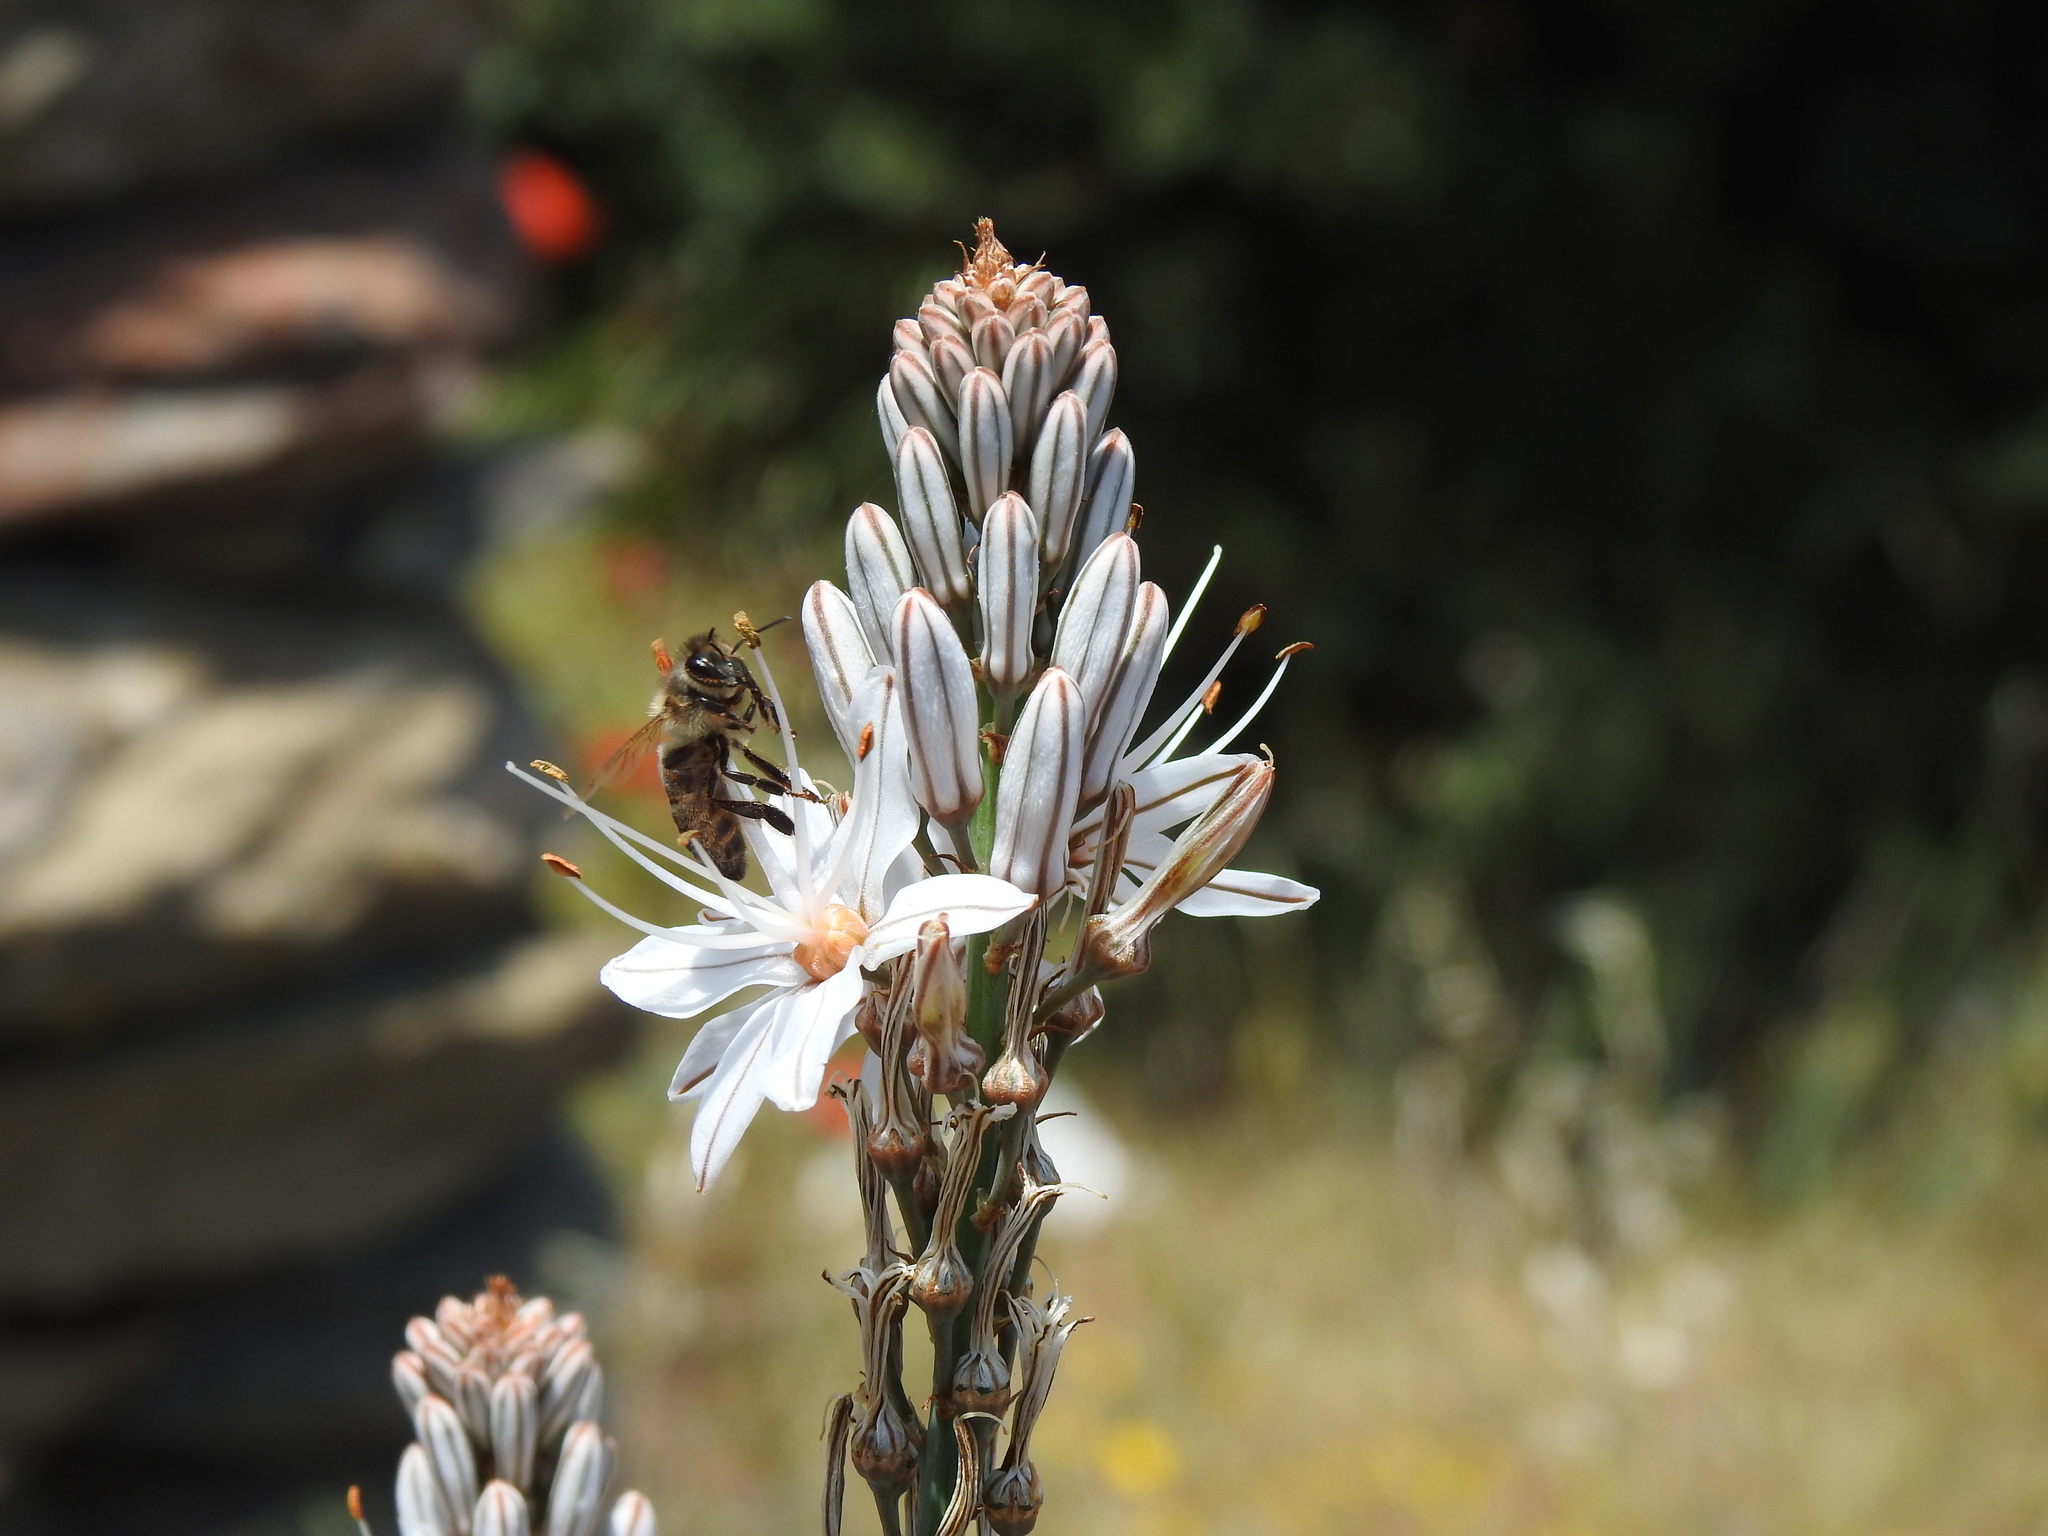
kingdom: Animalia
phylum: Arthropoda
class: Insecta
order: Hymenoptera
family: Apidae
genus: Apis
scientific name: Apis mellifera
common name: Honey bee
